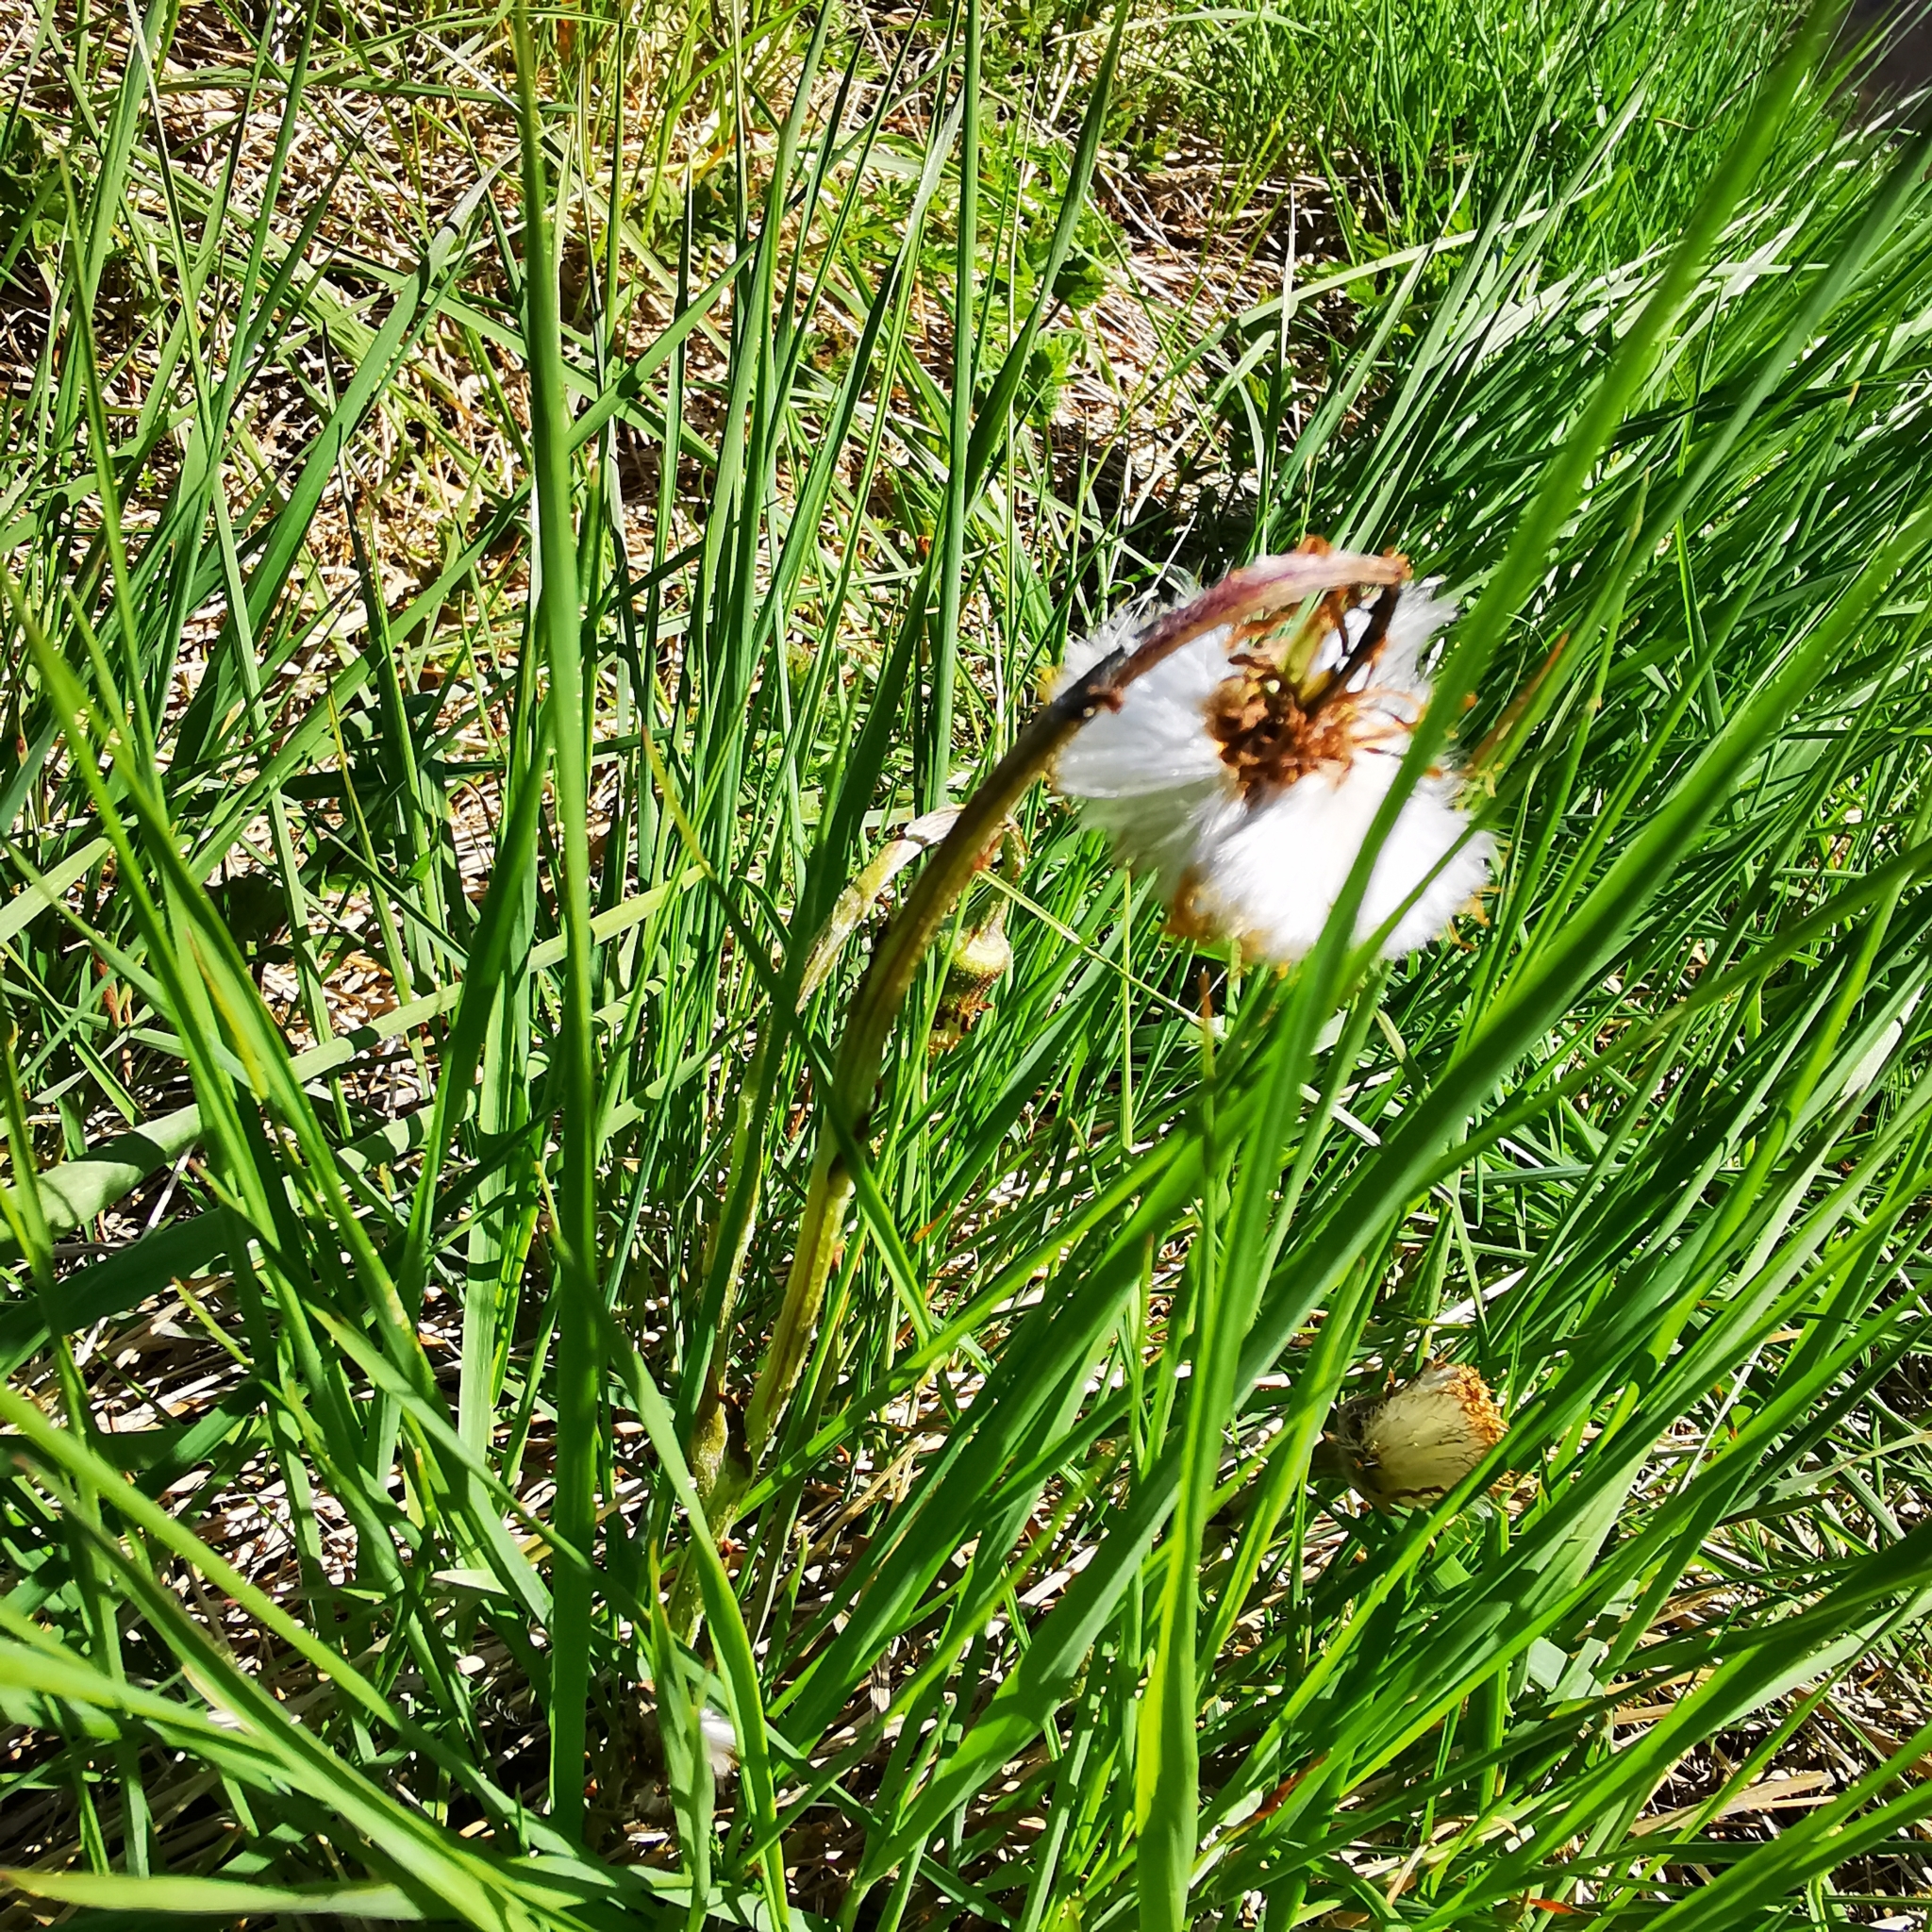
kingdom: Plantae
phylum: Tracheophyta
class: Magnoliopsida
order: Asterales
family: Asteraceae
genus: Tussilago
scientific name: Tussilago farfara
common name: Coltsfoot
